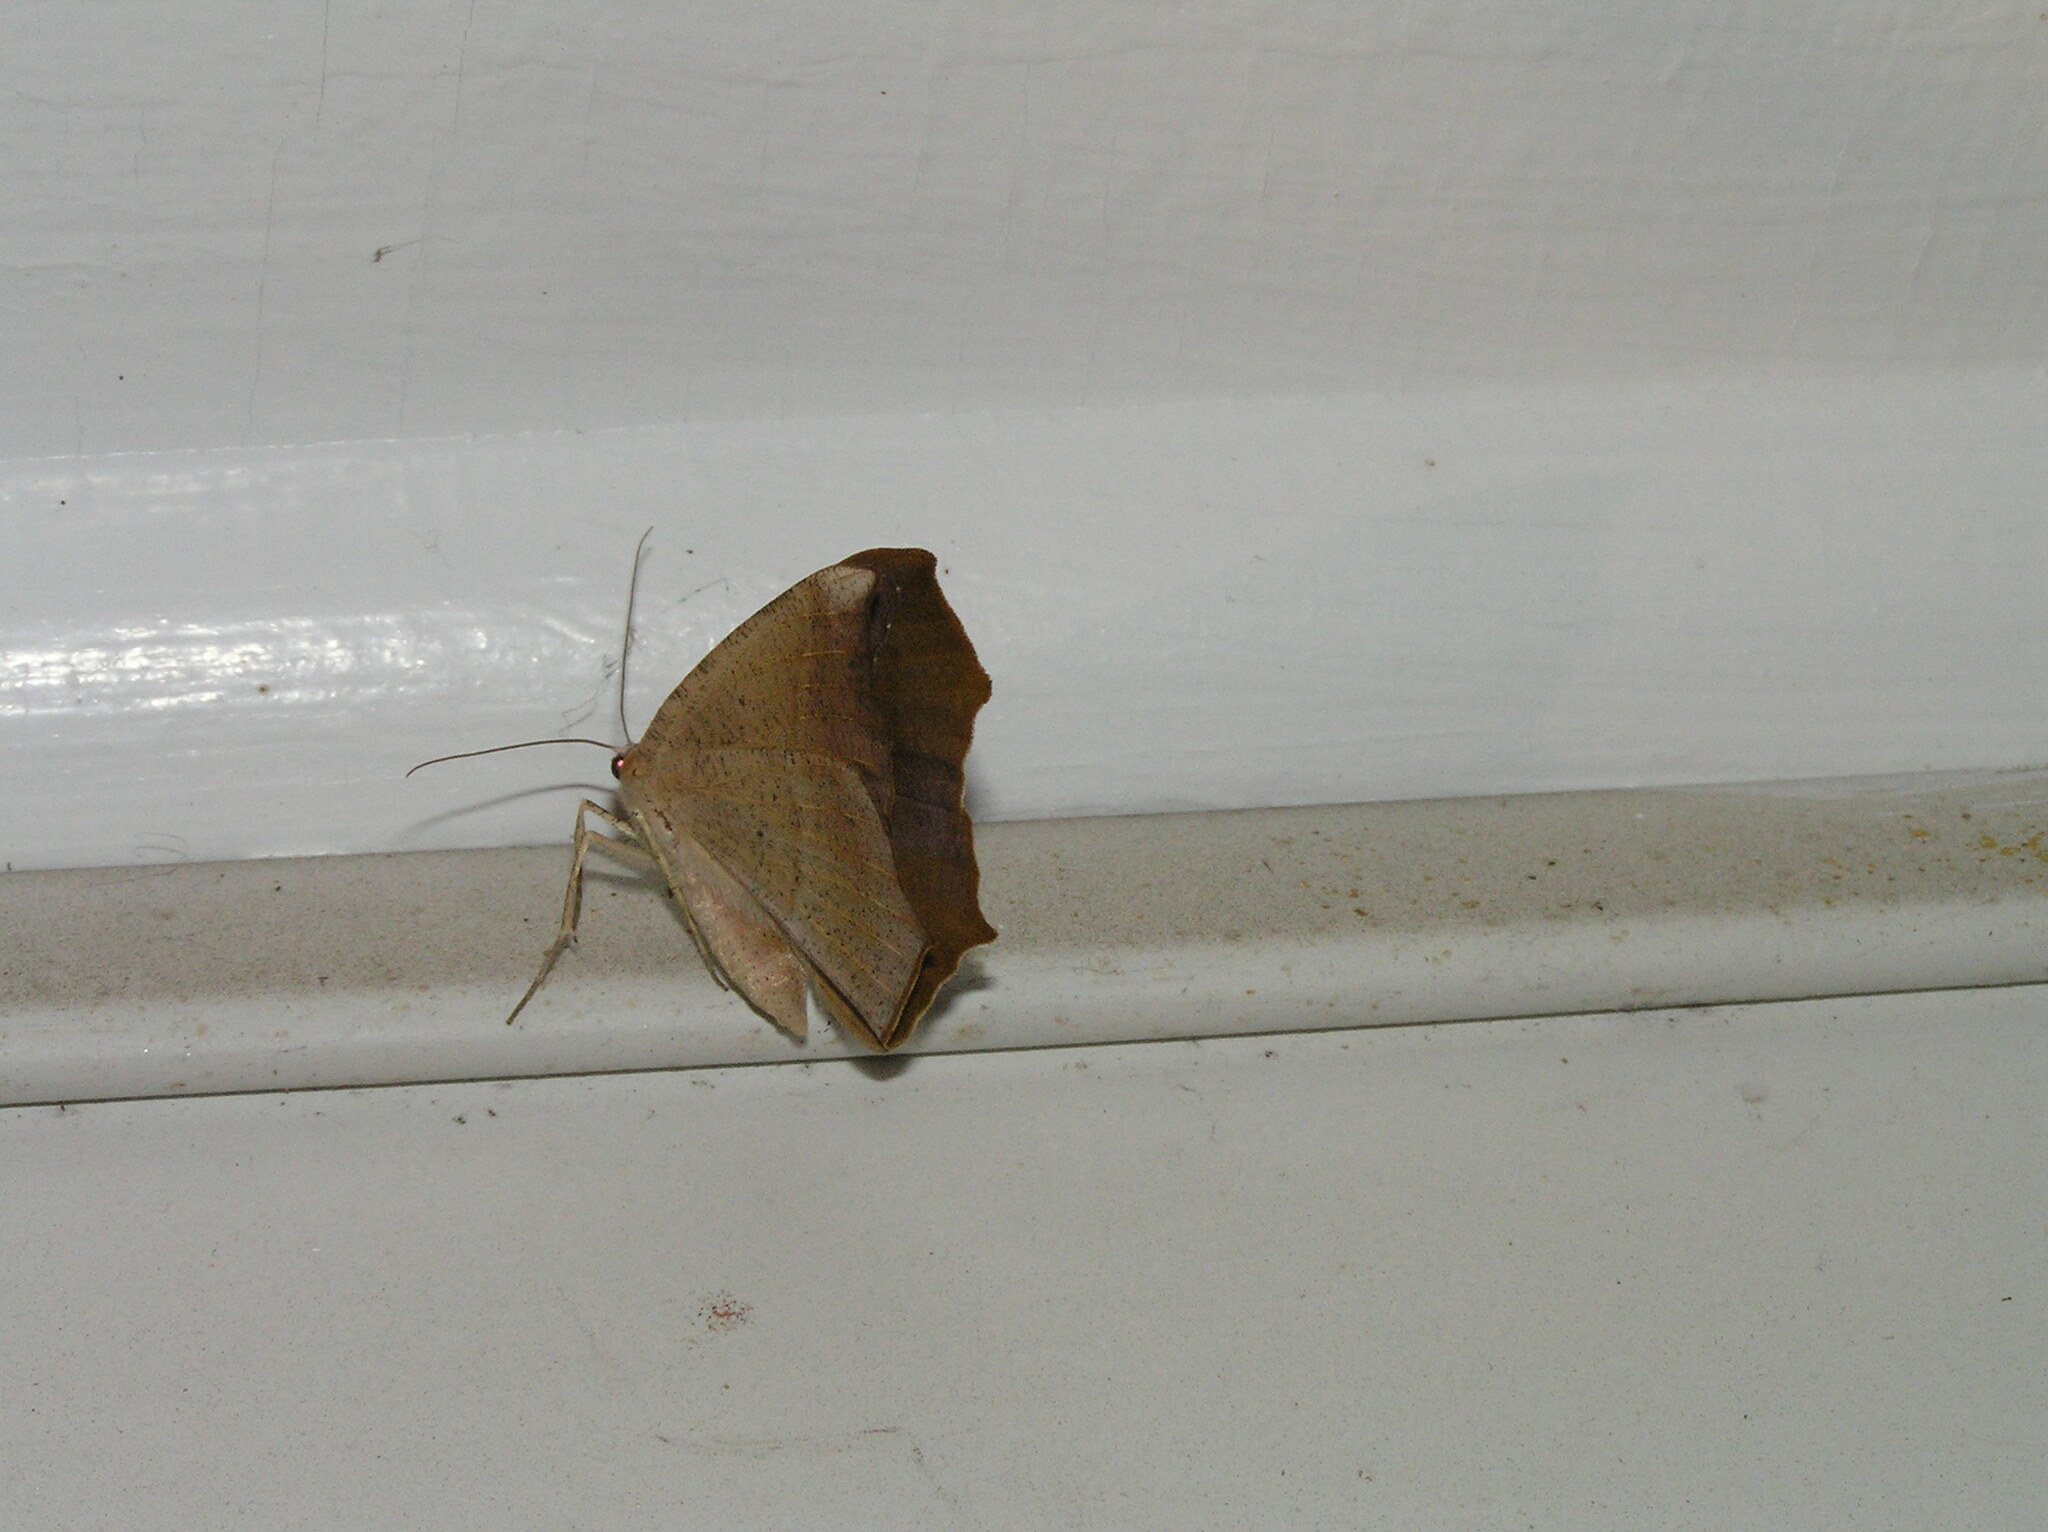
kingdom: Animalia
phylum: Arthropoda
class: Insecta
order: Lepidoptera
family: Geometridae
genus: Prochoerodes
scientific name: Prochoerodes lineola
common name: Large maple spanworm
